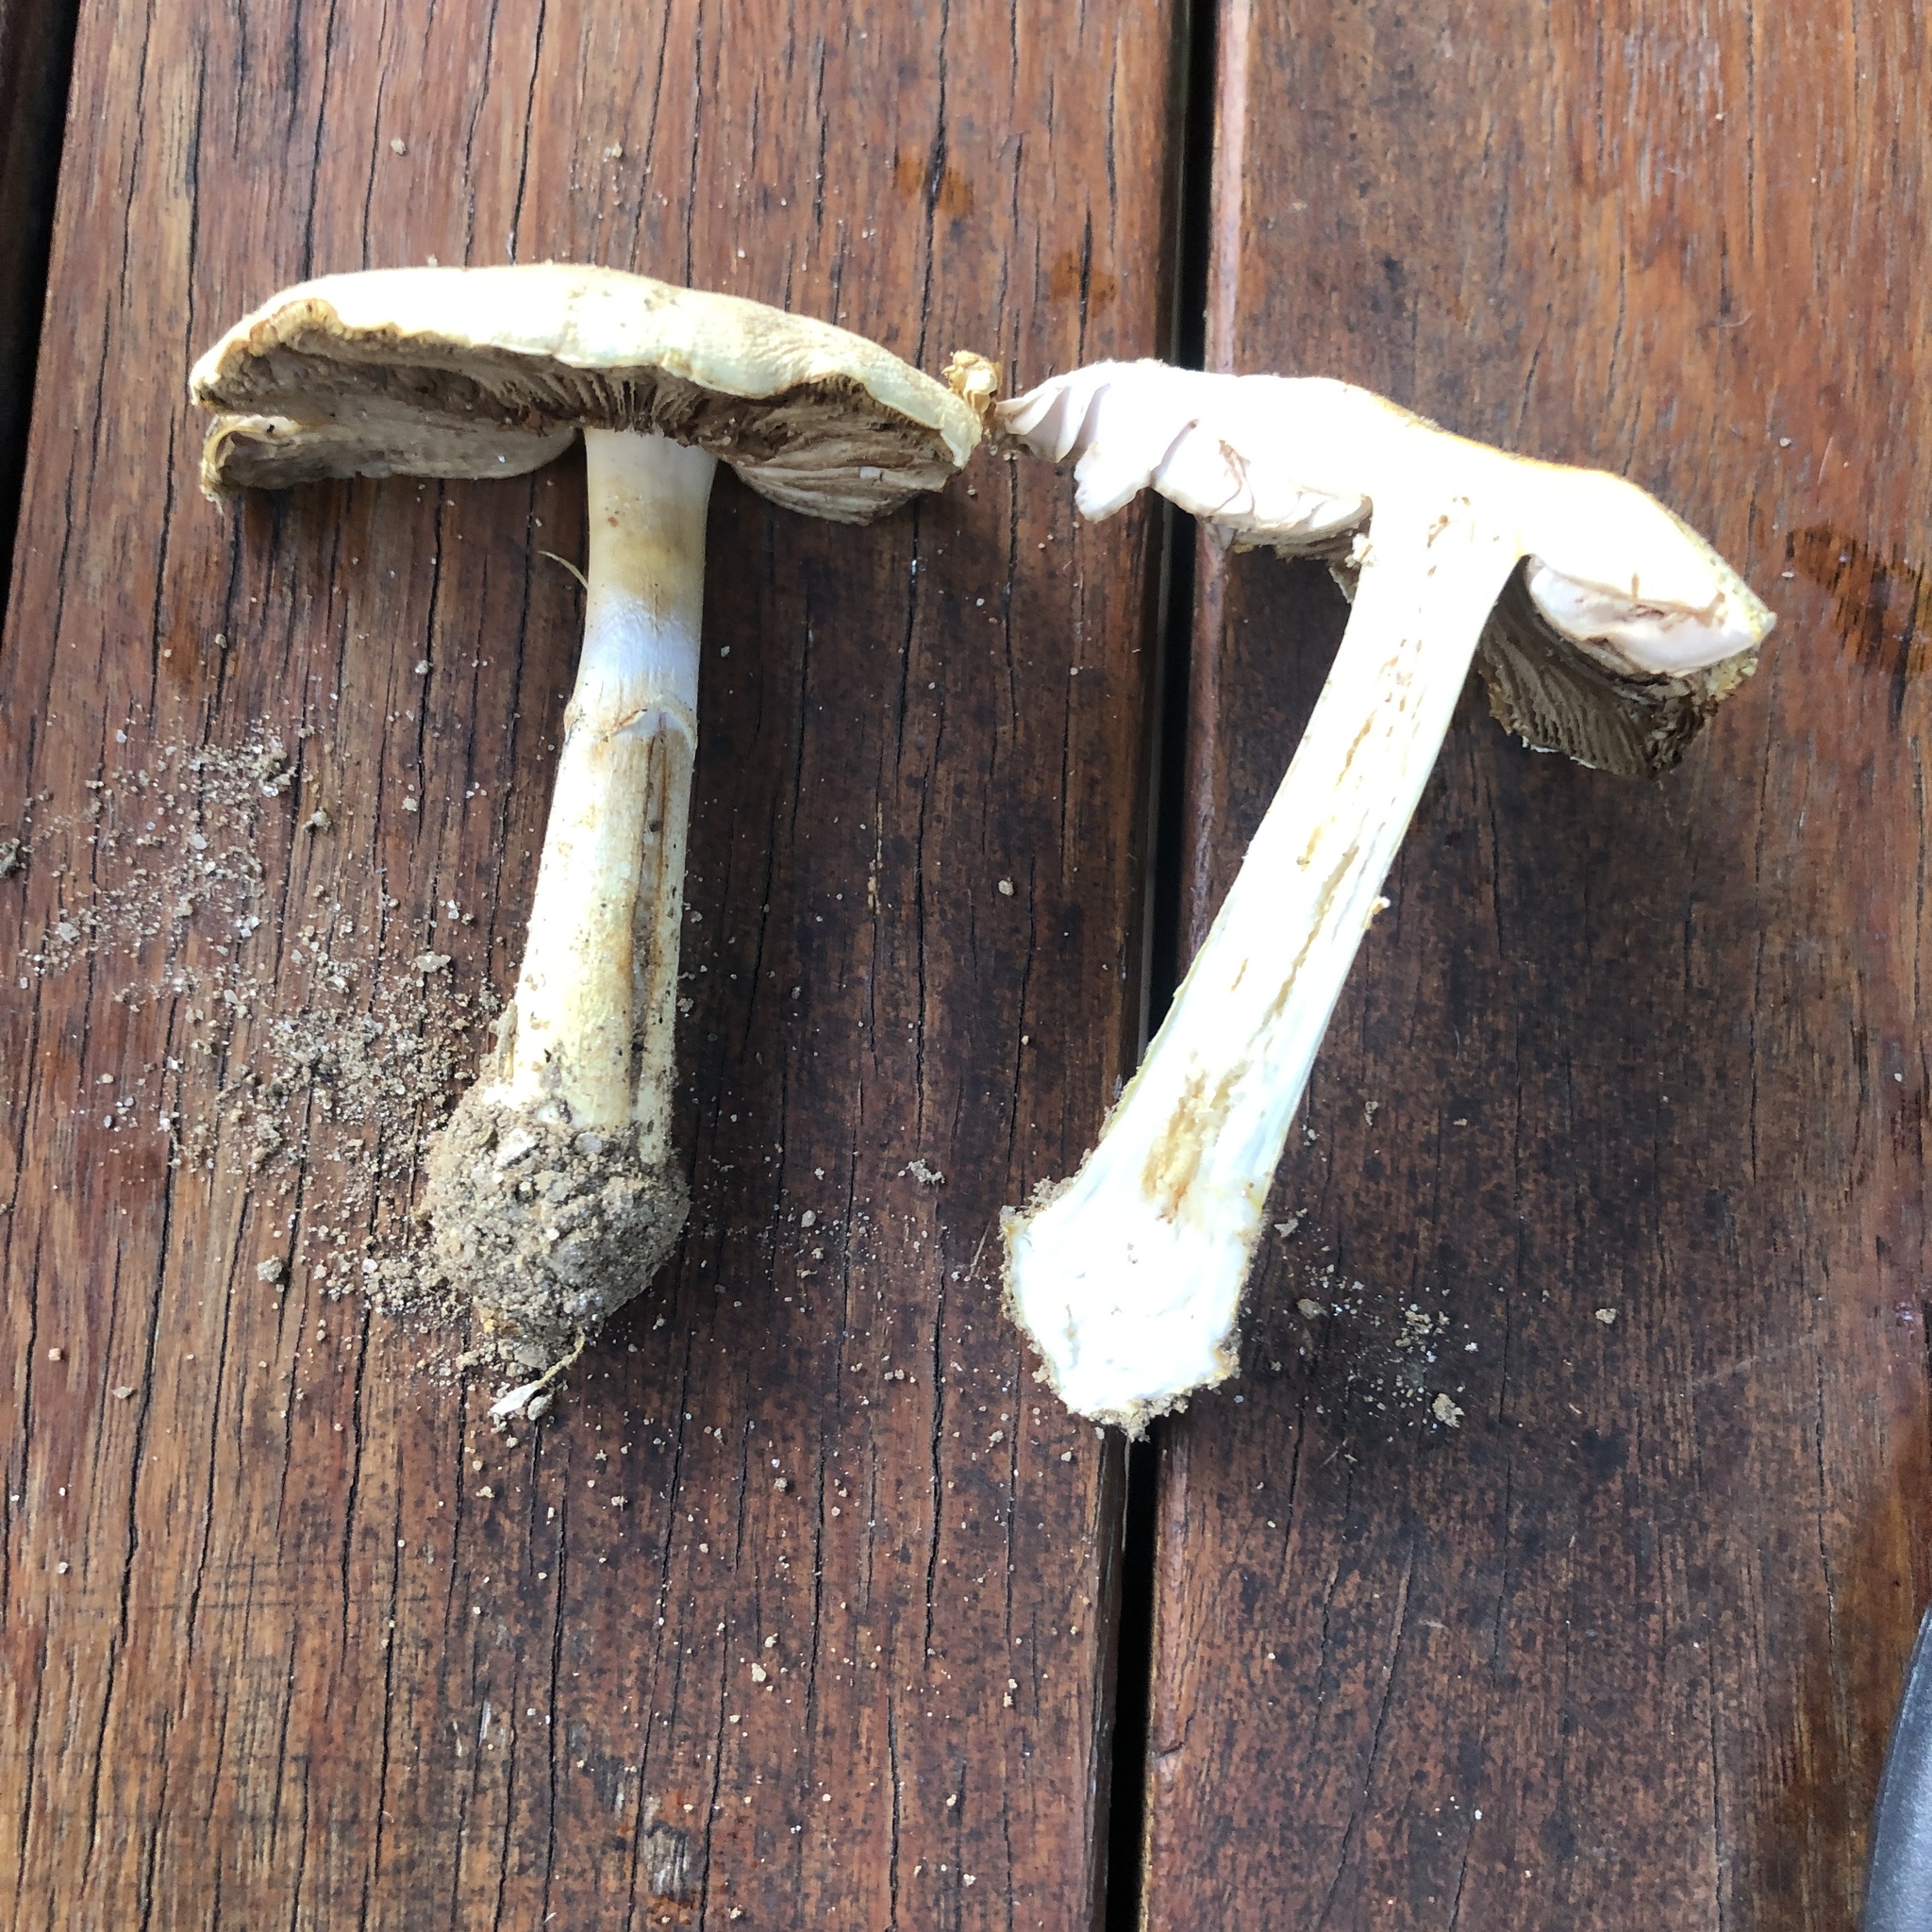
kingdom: Fungi
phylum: Basidiomycota
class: Agaricomycetes
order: Agaricales
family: Agaricaceae
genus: Agaricus
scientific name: Agaricus floridanus
